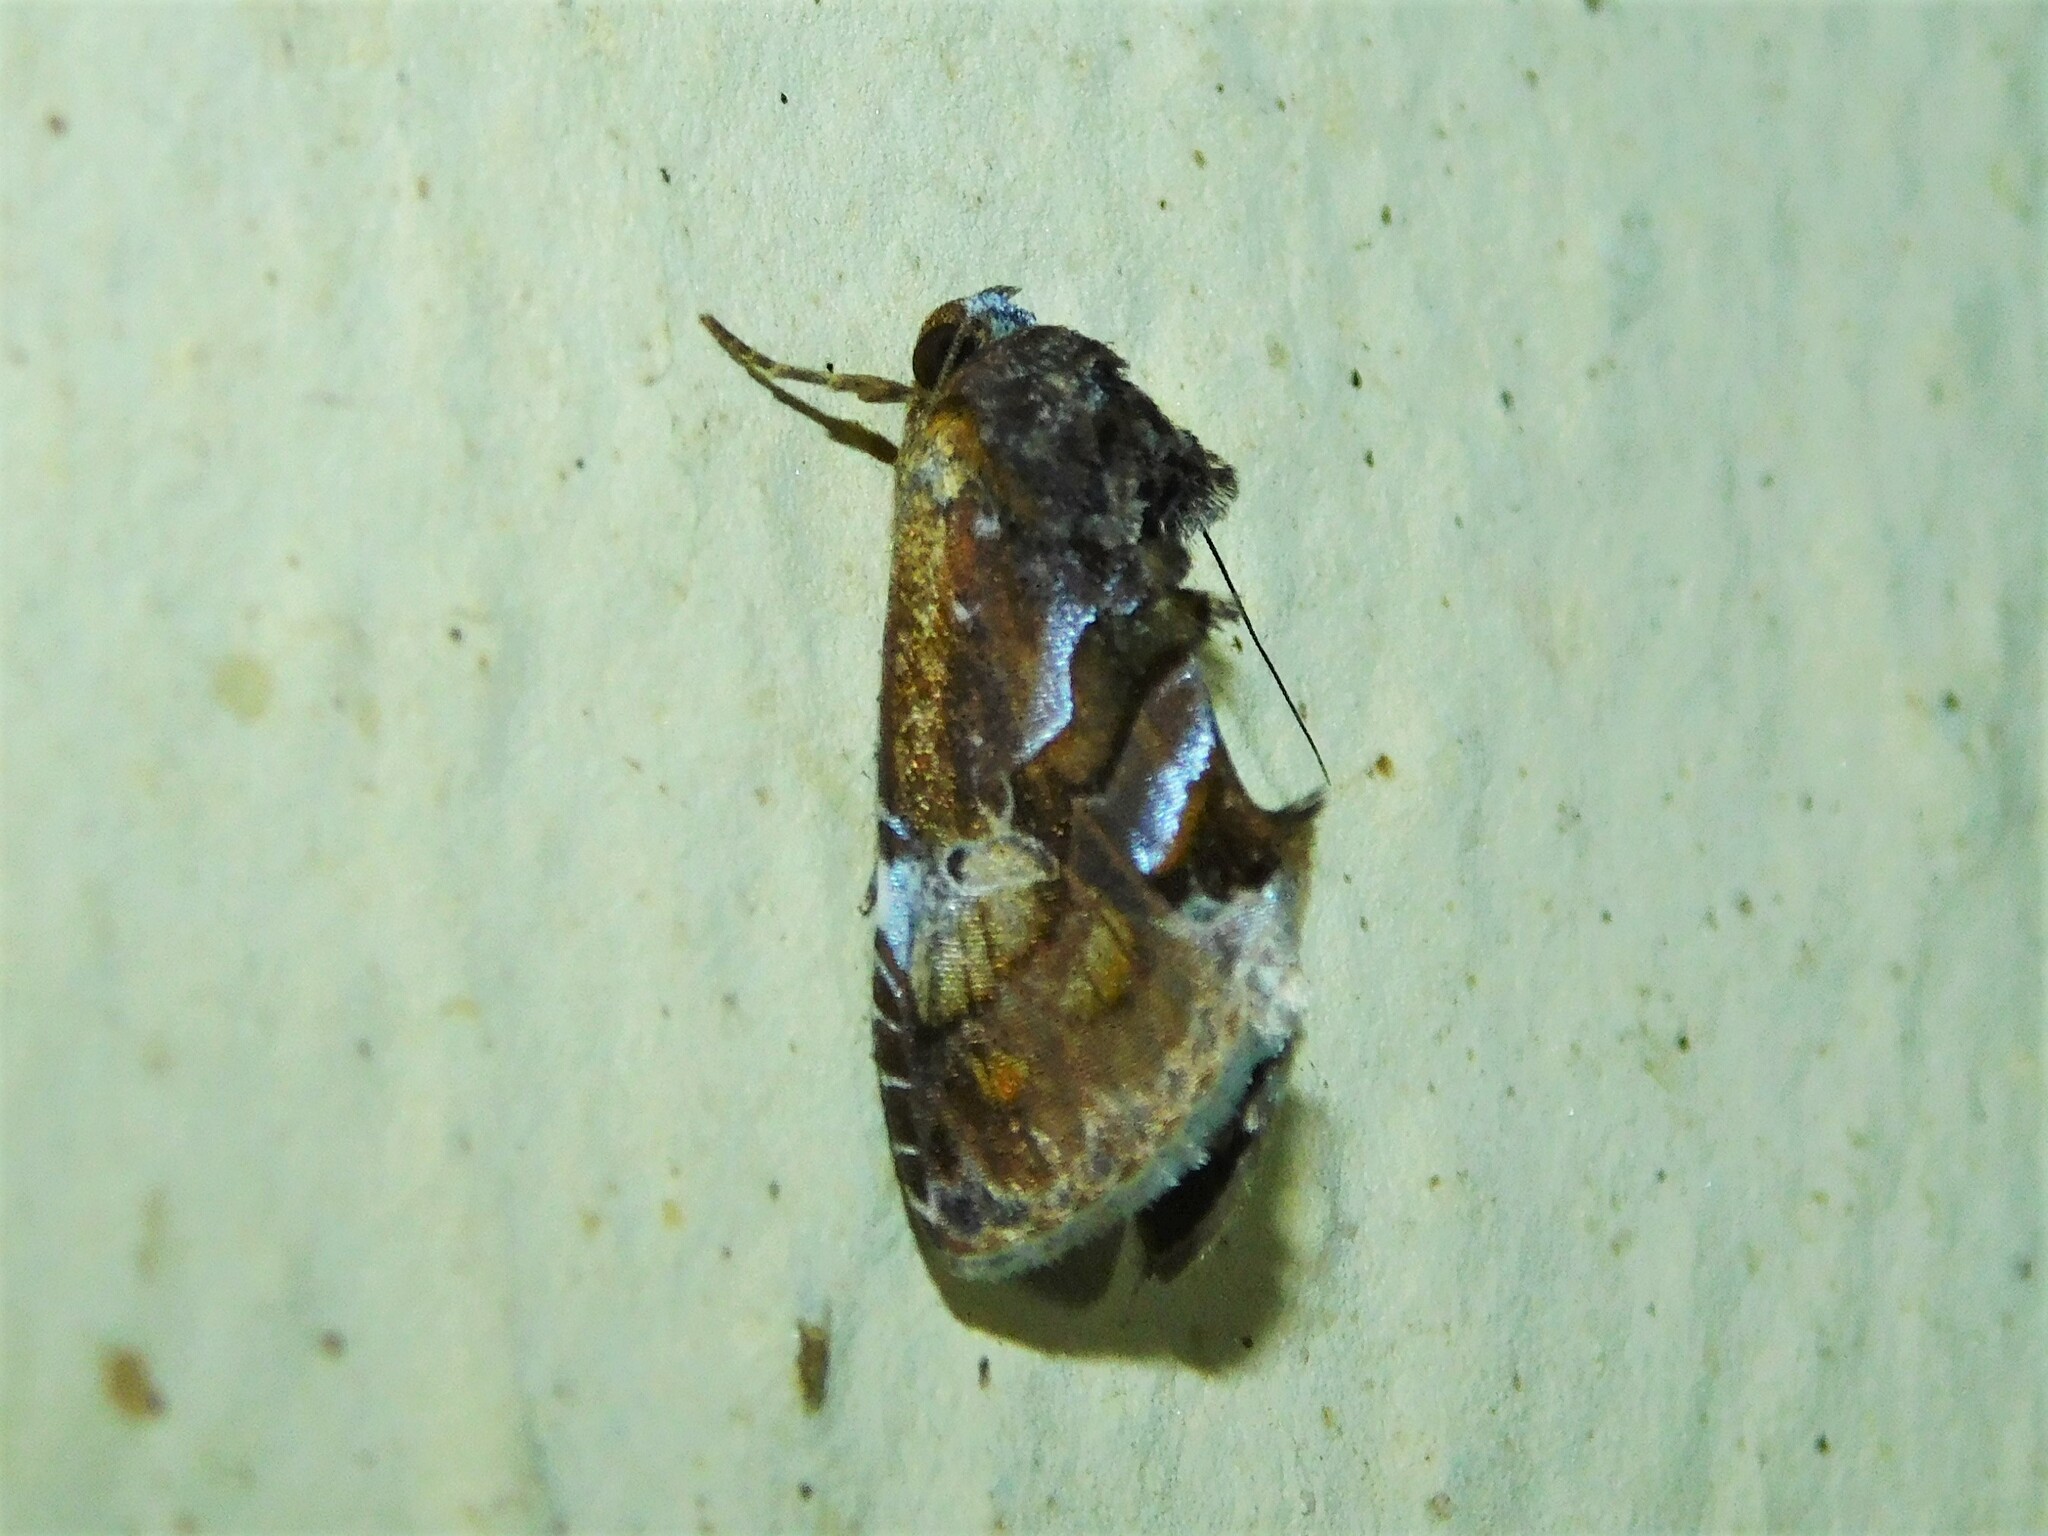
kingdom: Animalia
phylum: Arthropoda
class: Insecta
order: Lepidoptera
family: Nolidae
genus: Hypodeva
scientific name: Hypodeva barbata
